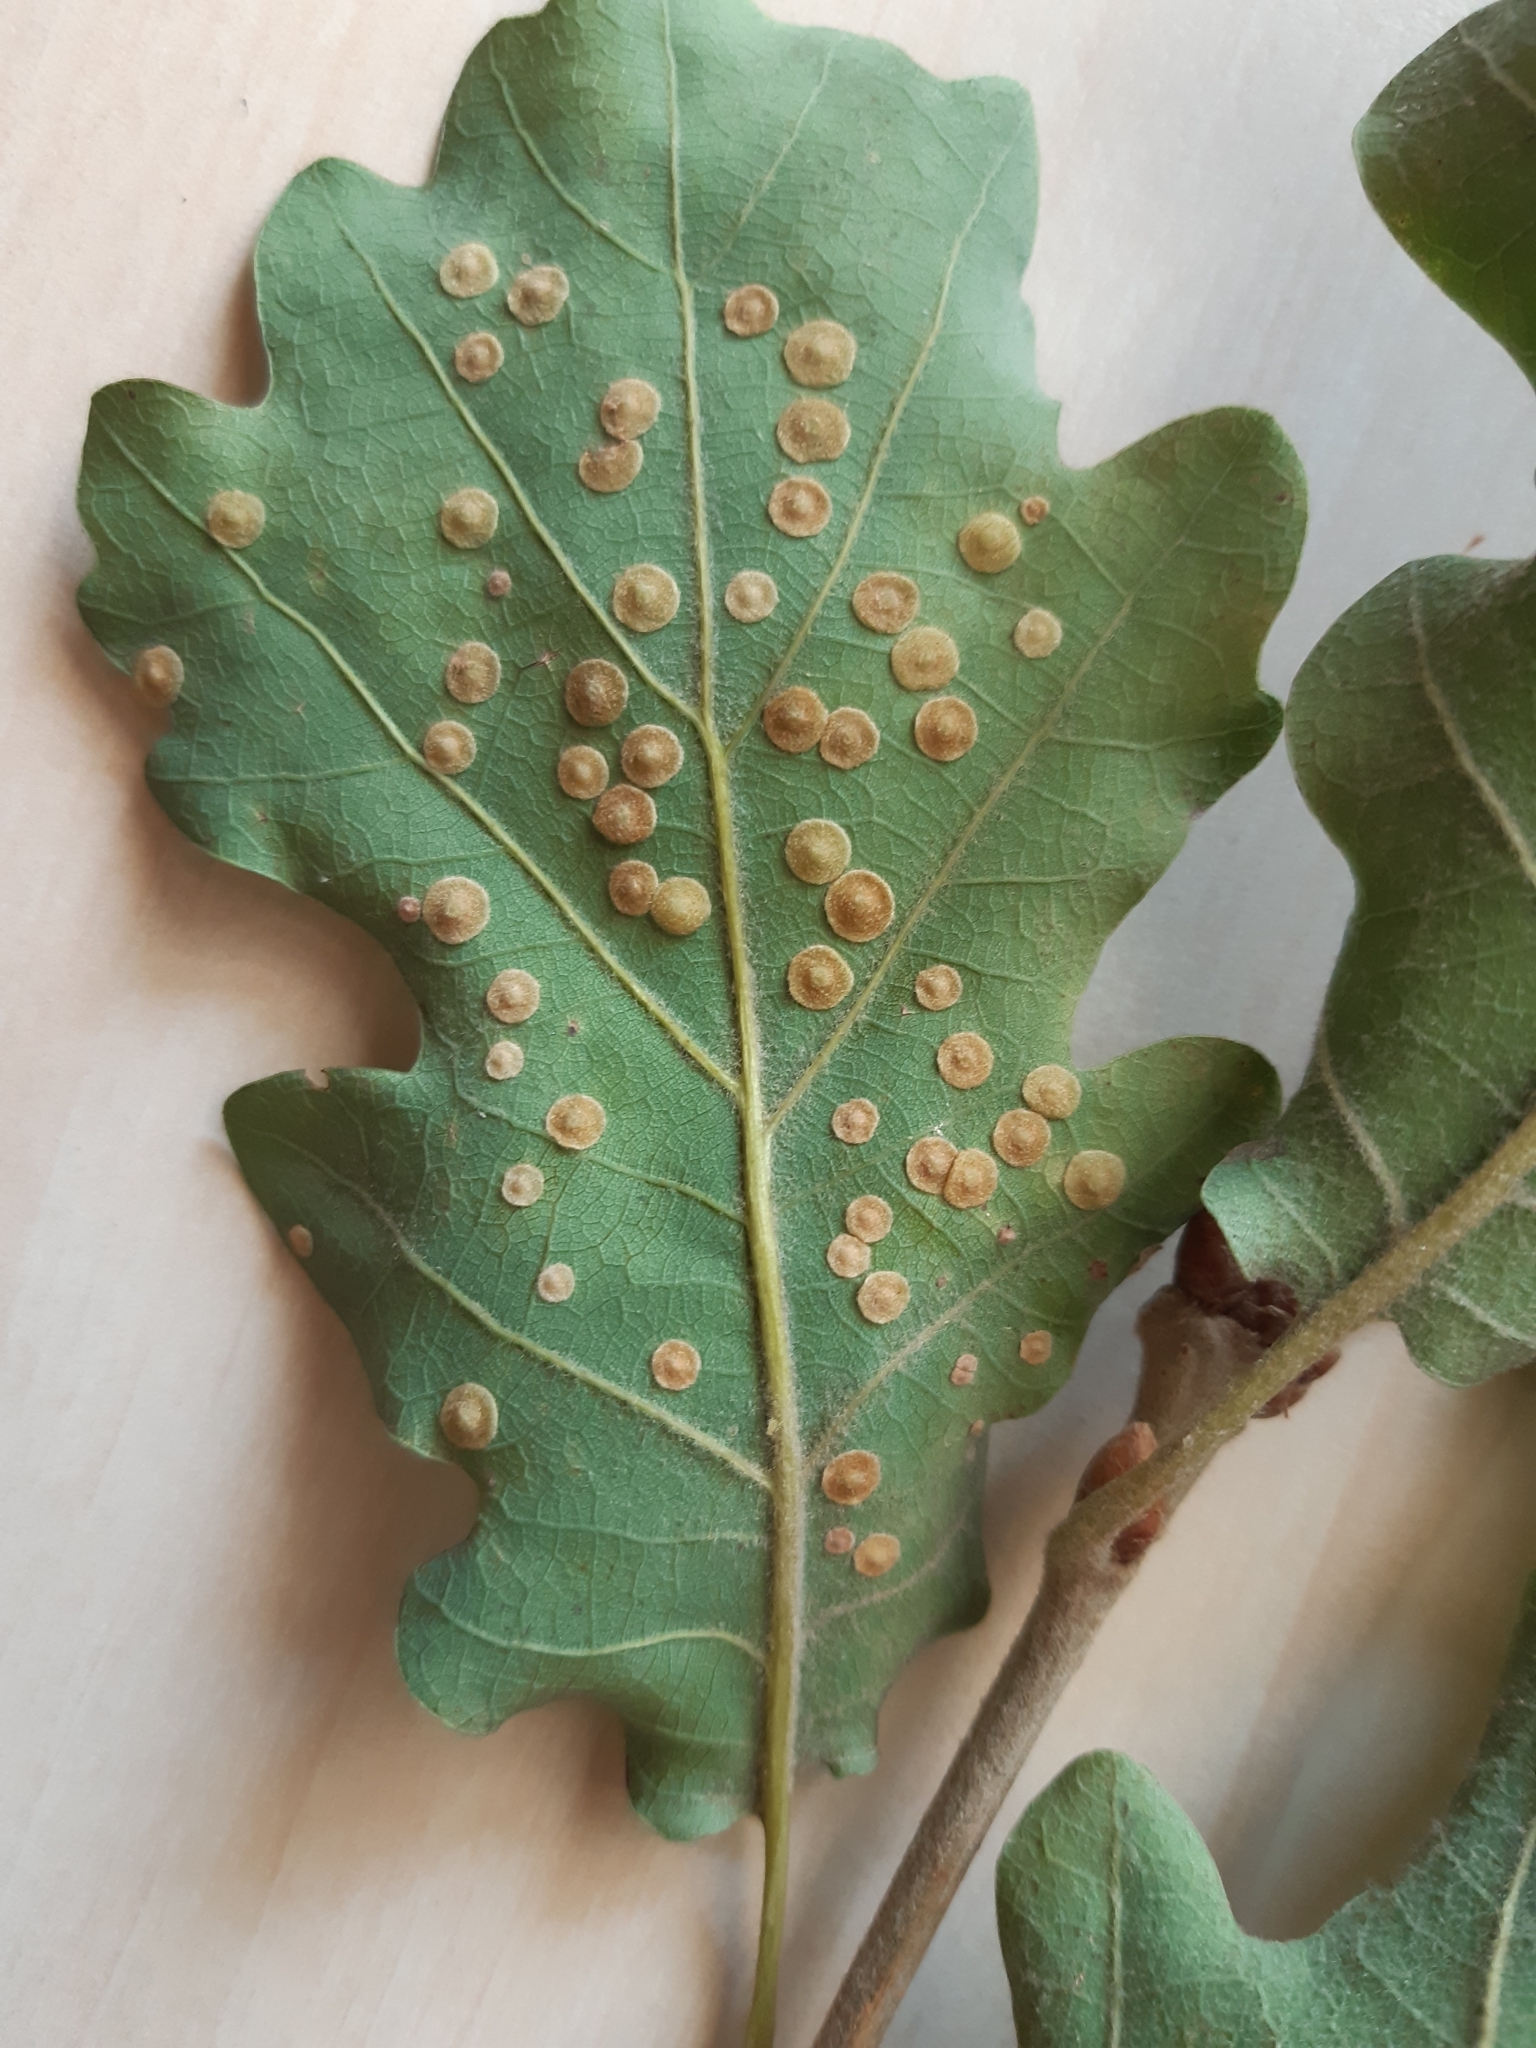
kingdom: Animalia
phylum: Arthropoda
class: Insecta
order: Hymenoptera
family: Cynipidae
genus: Neuroterus
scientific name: Neuroterus quercusbaccarum
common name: Common spangle gall
